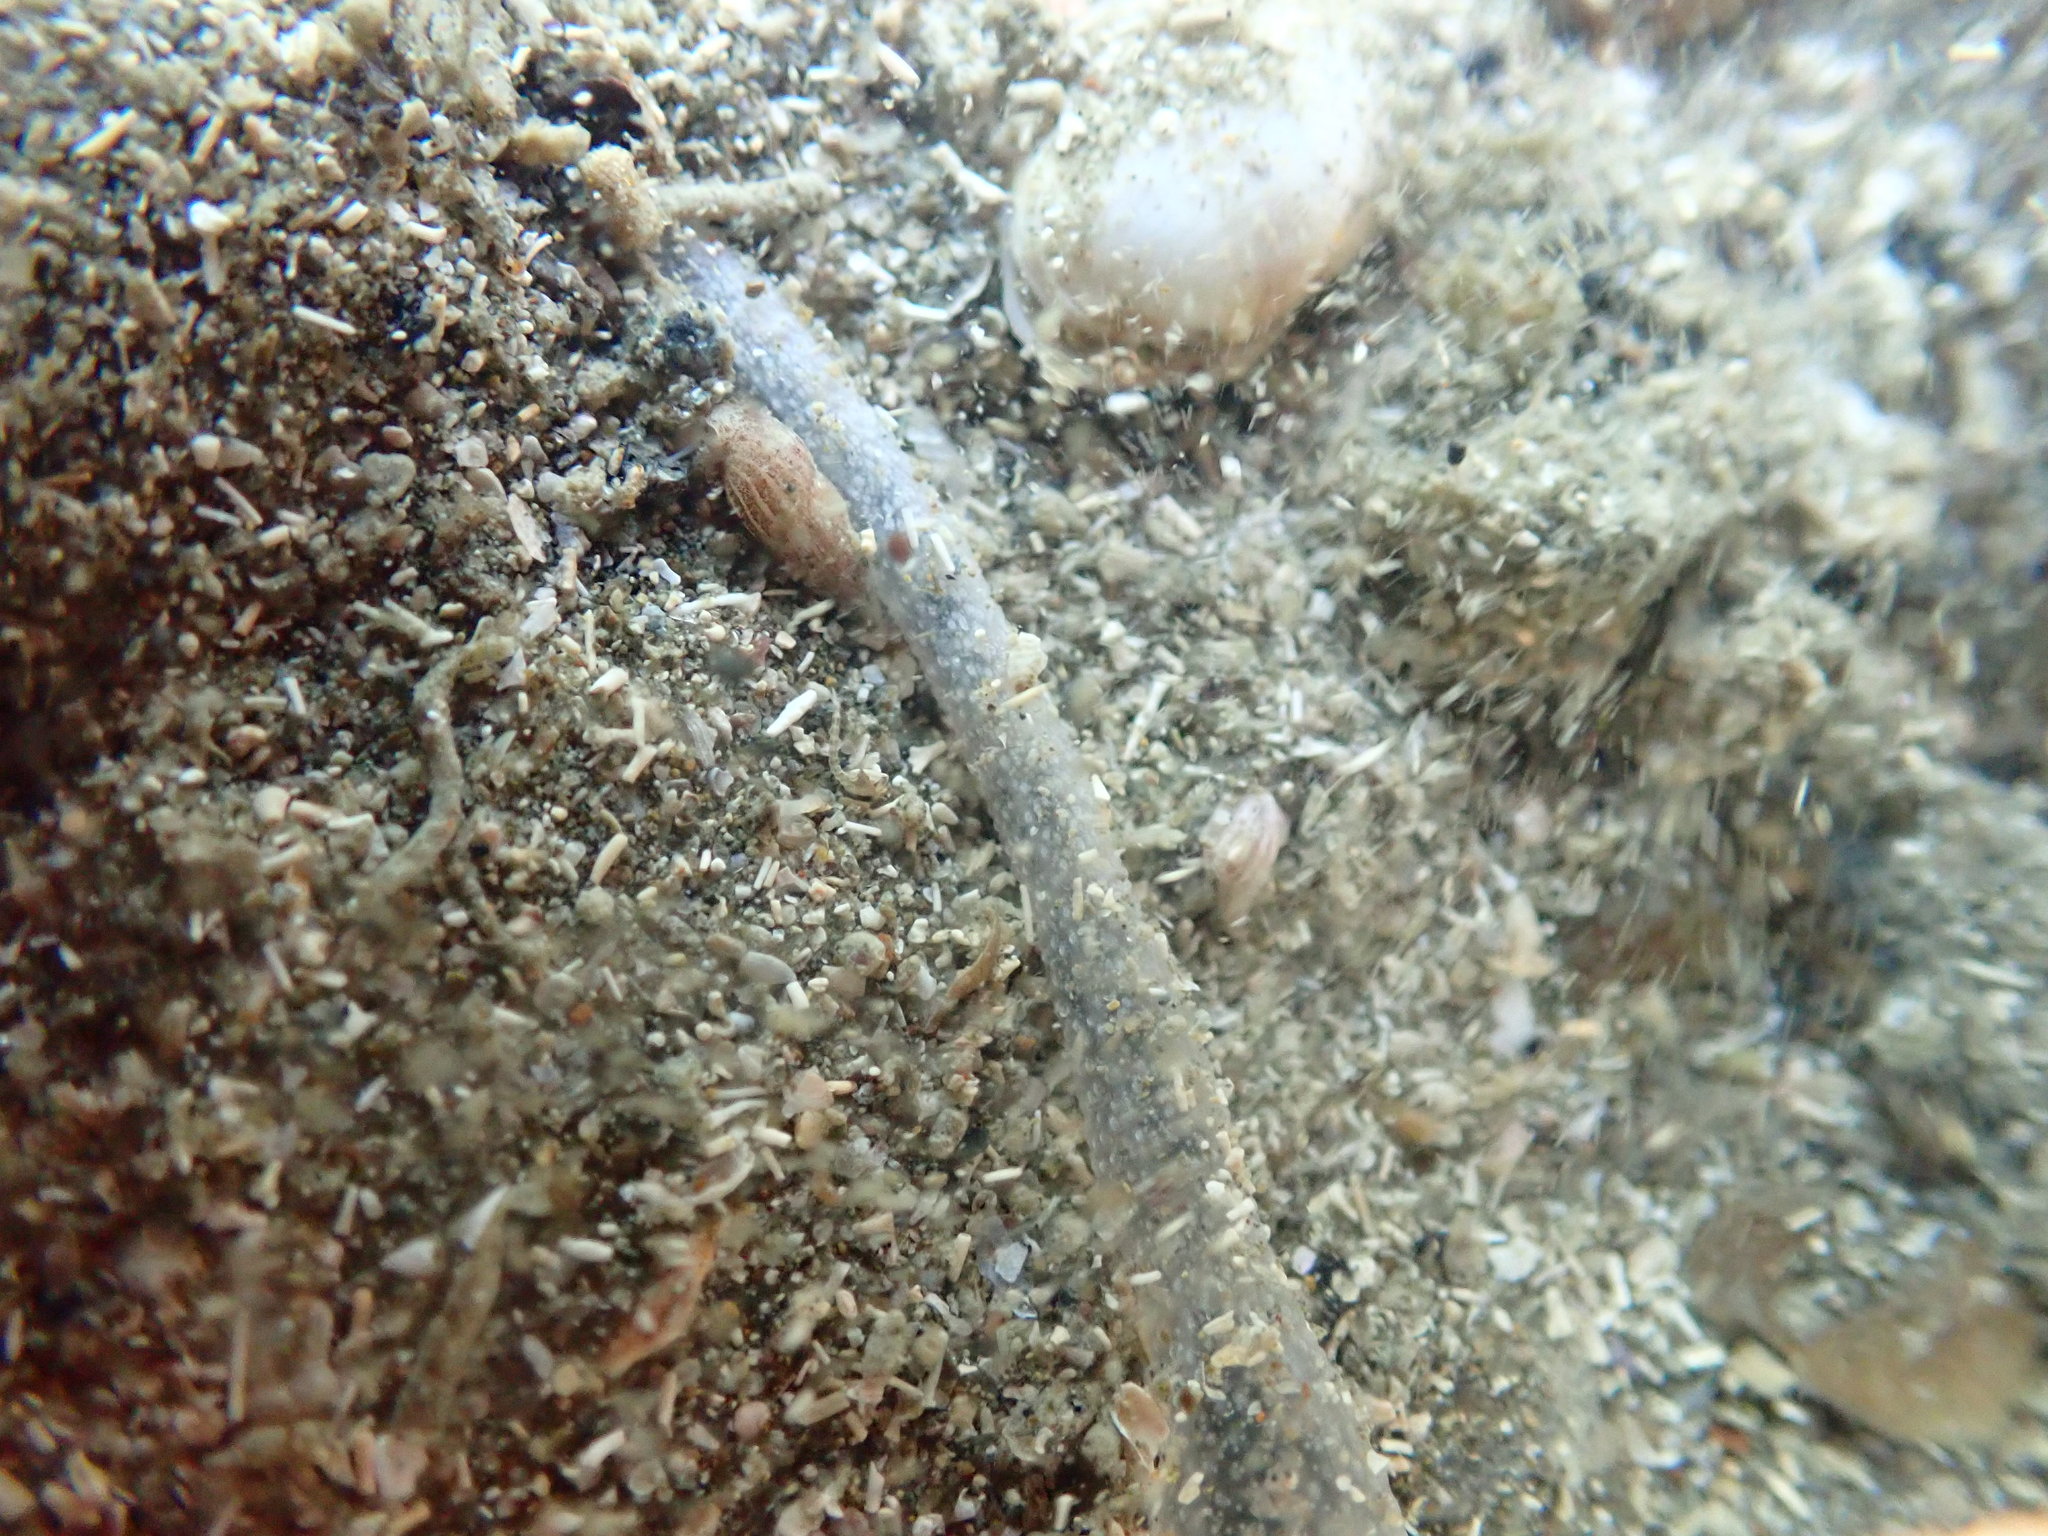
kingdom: Animalia
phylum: Echinodermata
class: Holothuroidea
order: Apodida
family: Chiridotidae
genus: Taeniogyrus
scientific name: Taeniogyrus dendyi
